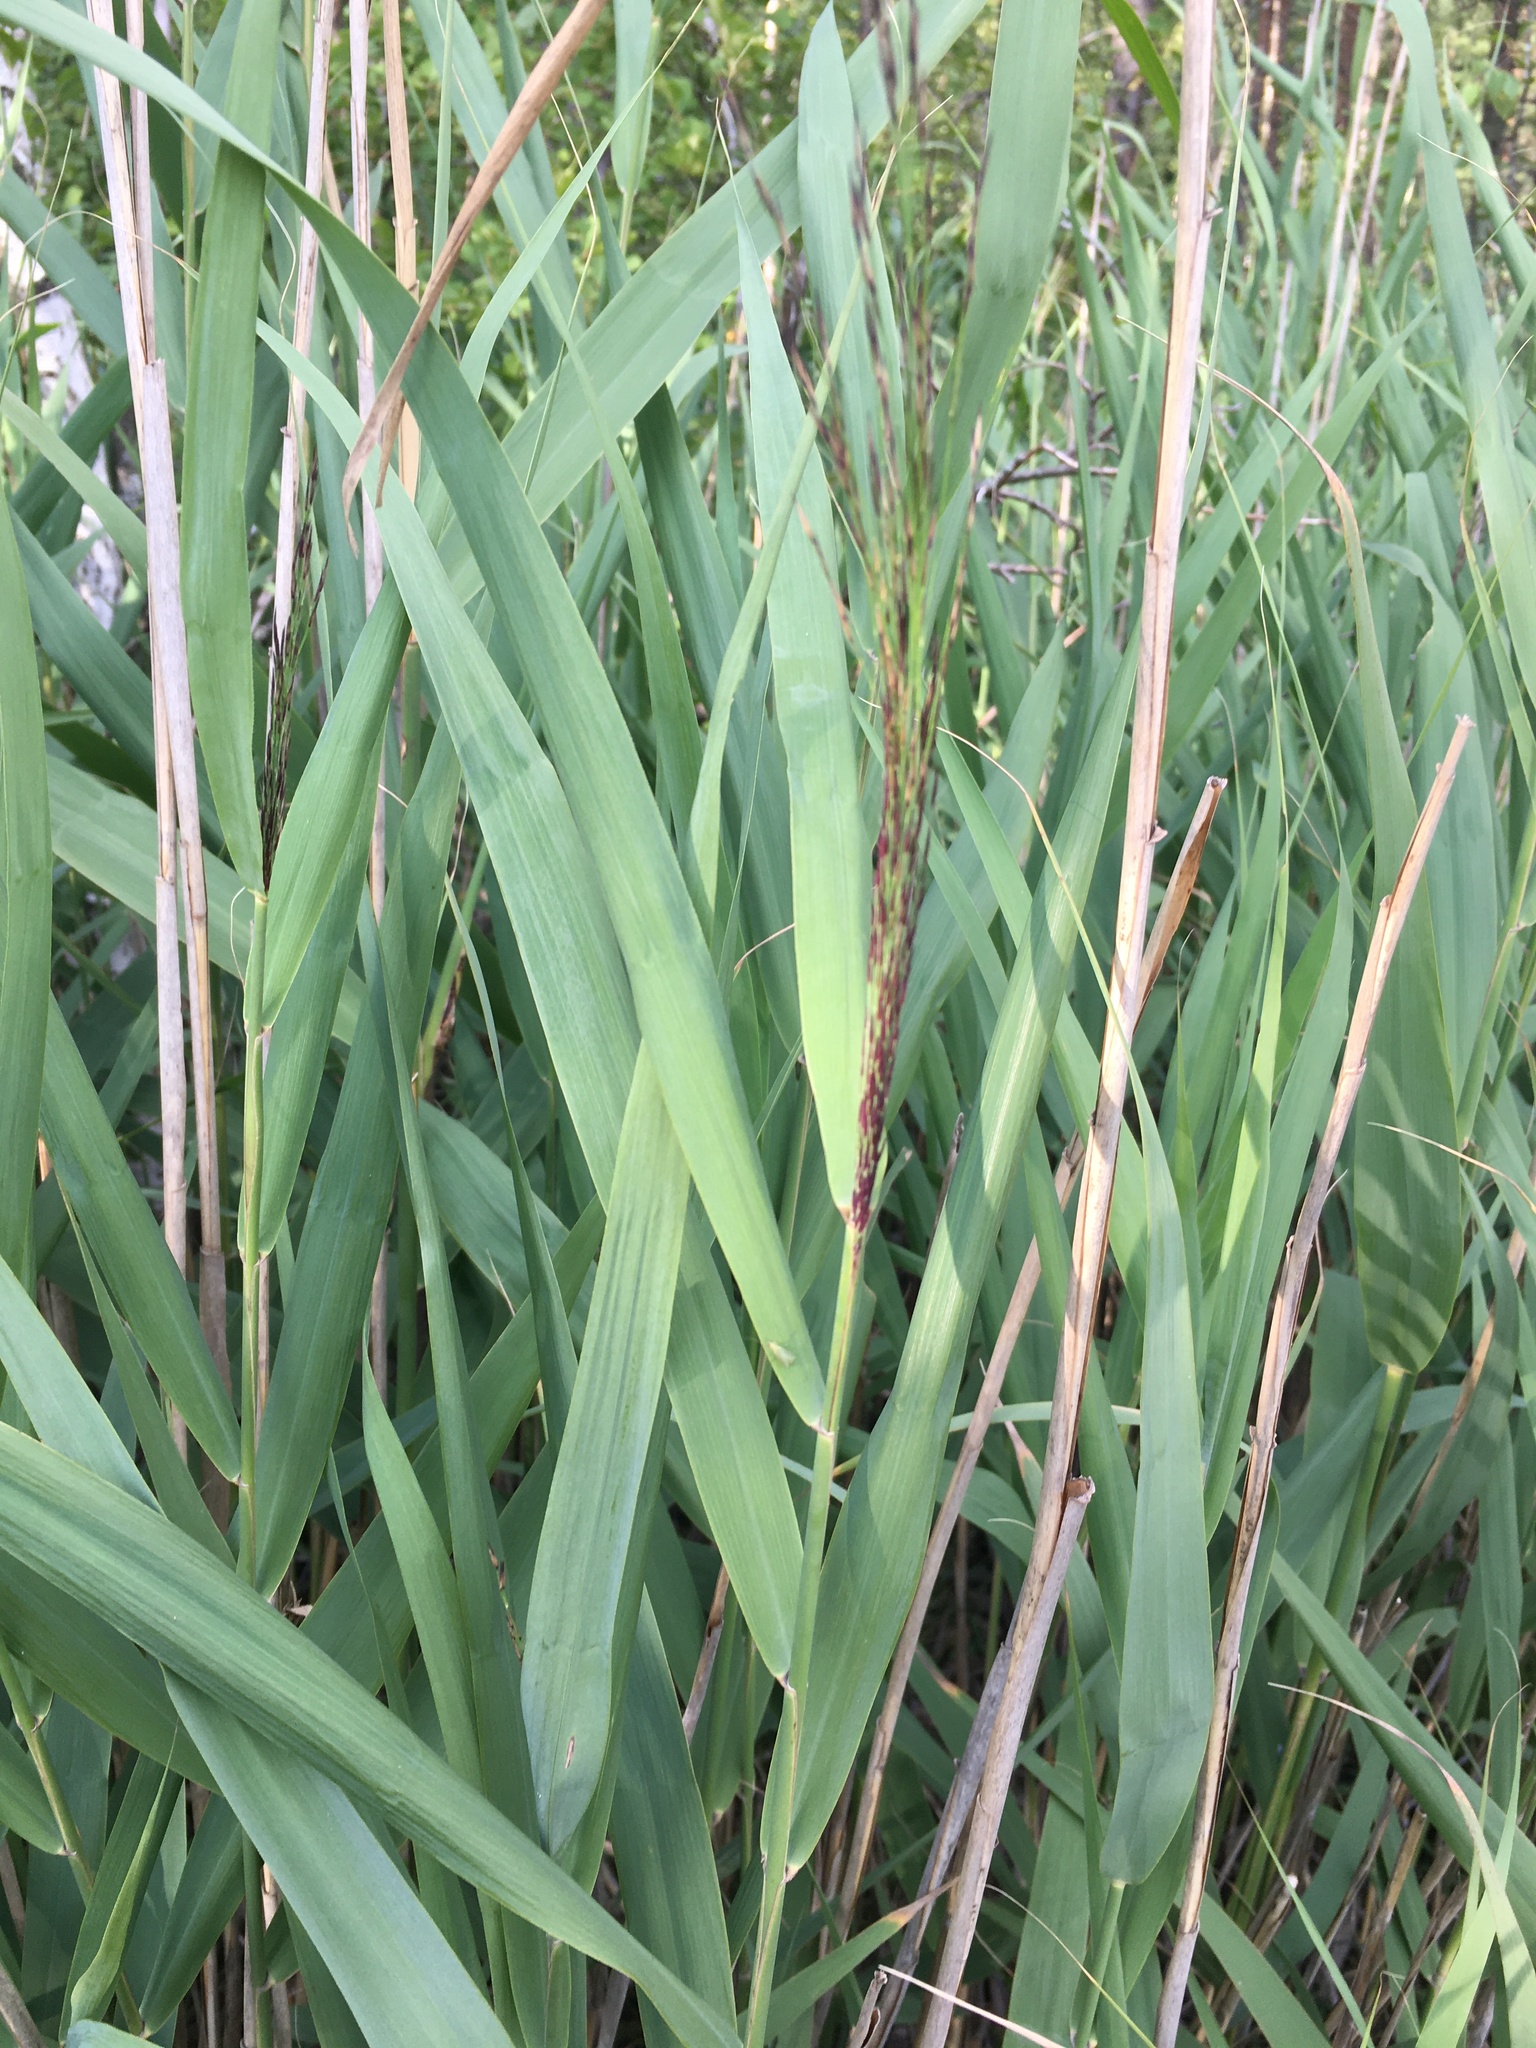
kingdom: Plantae
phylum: Tracheophyta
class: Liliopsida
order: Poales
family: Poaceae
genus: Phragmites
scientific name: Phragmites australis
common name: Common reed
